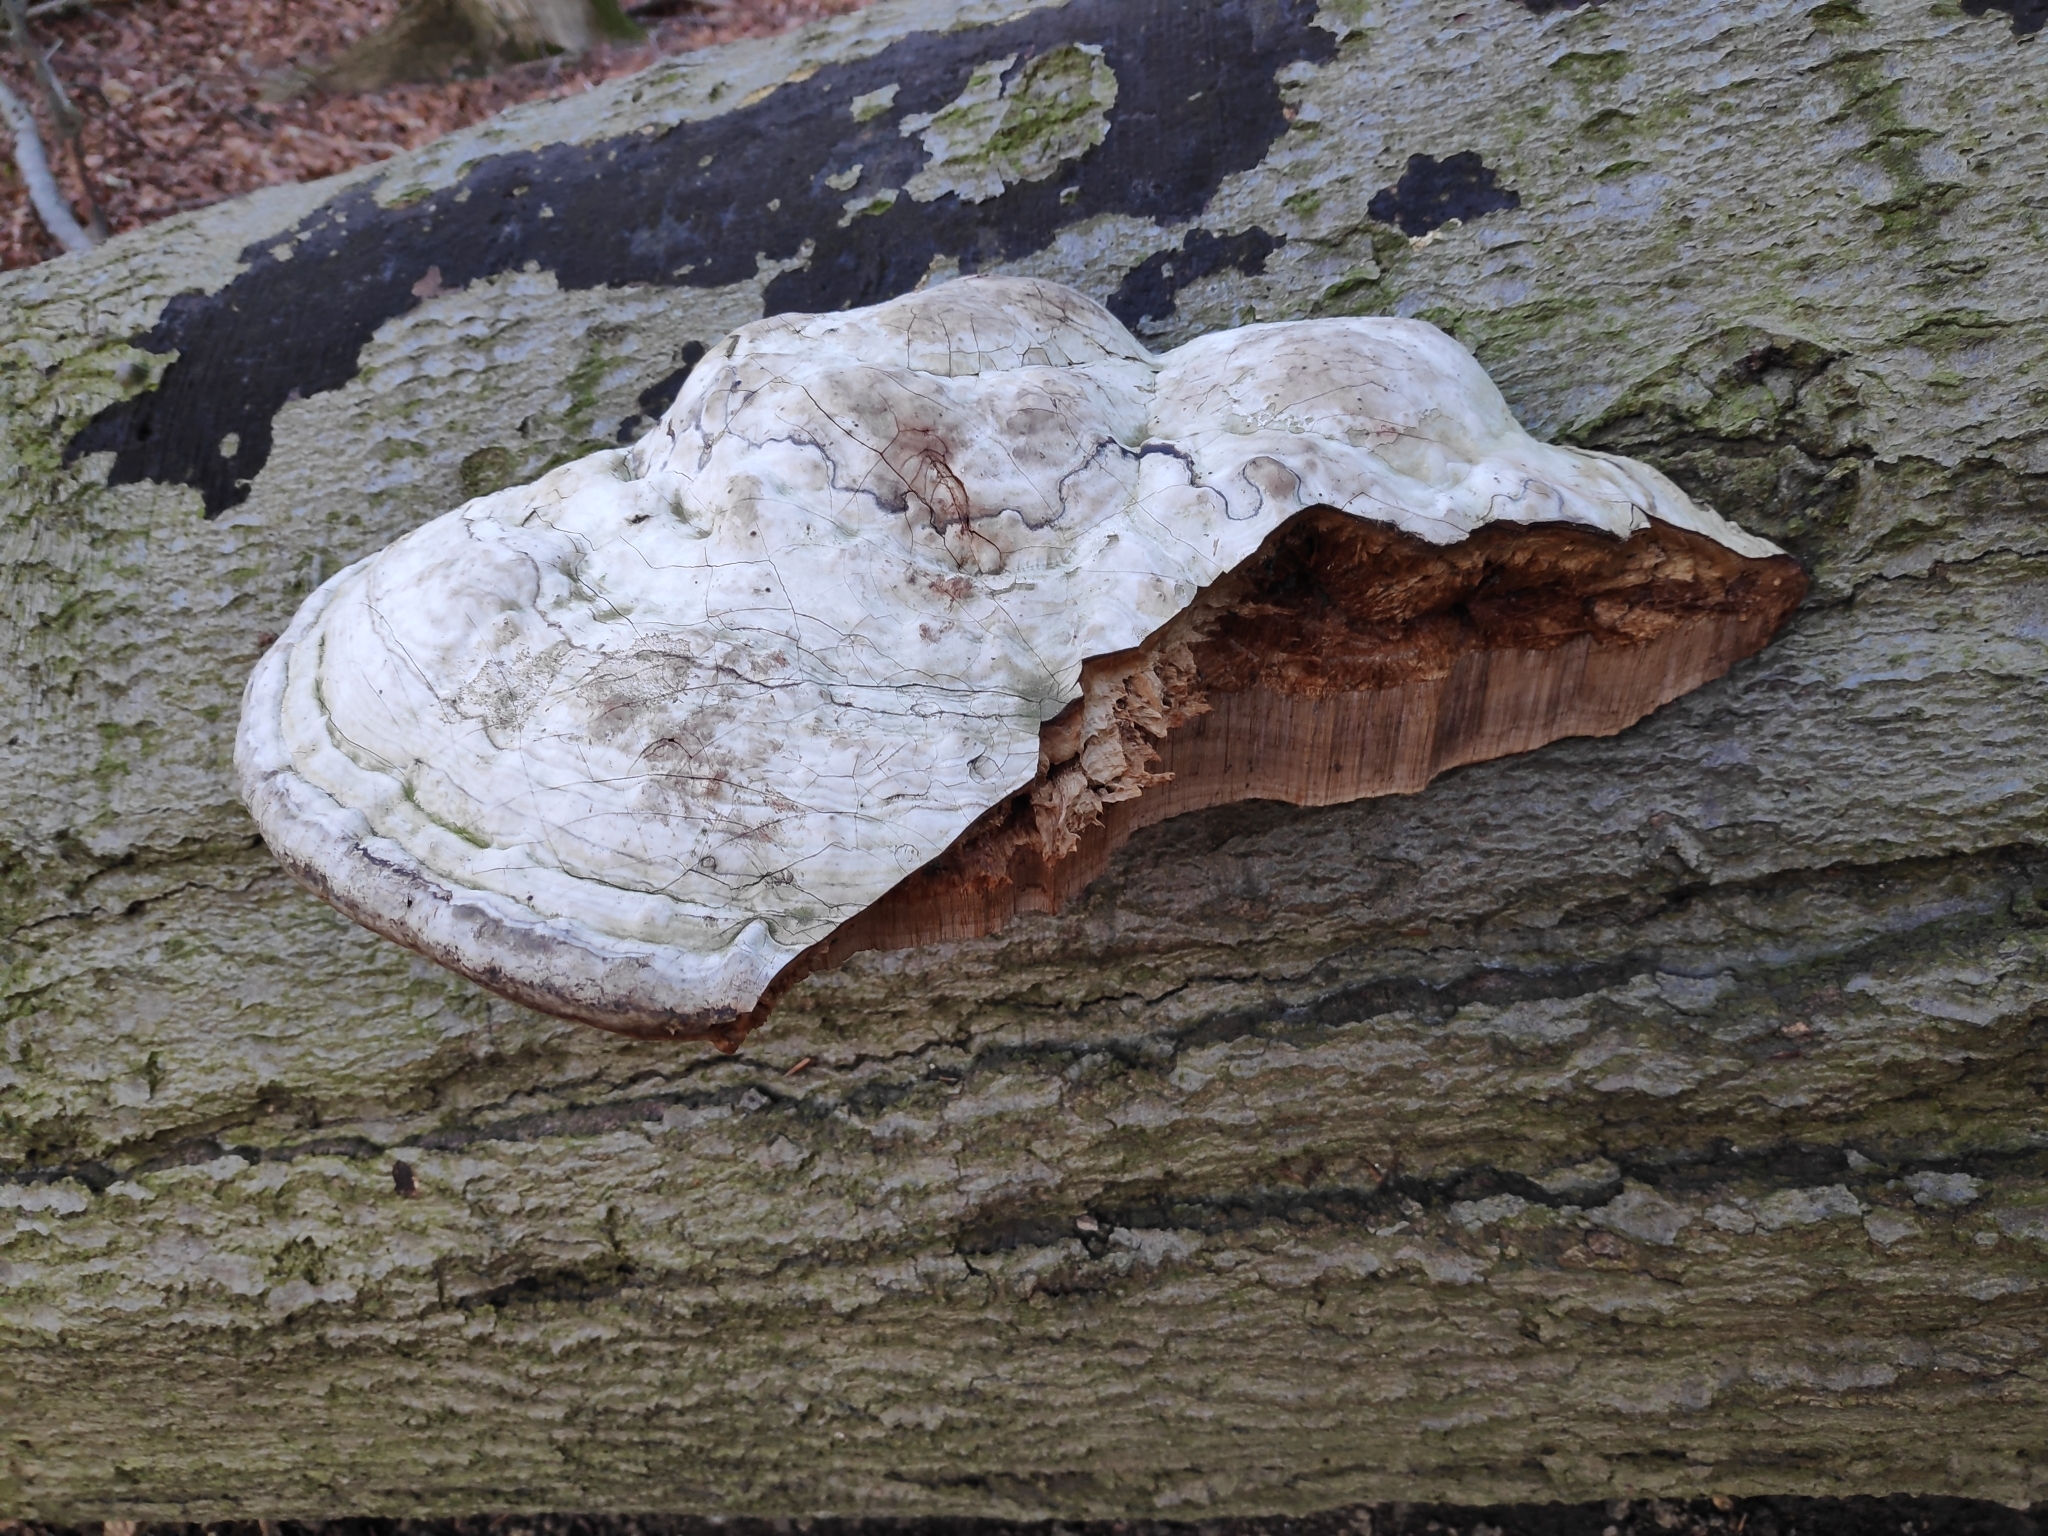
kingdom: Fungi
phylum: Basidiomycota
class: Agaricomycetes
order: Polyporales
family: Polyporaceae
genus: Fomes
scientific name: Fomes fomentarius
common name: Hoof fungus
